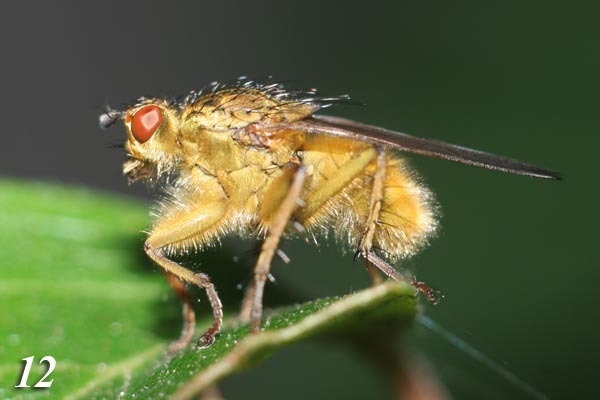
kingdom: Animalia
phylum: Arthropoda
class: Insecta
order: Diptera
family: Scathophagidae
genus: Scathophaga
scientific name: Scathophaga stercoraria
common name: Yellow dung fly
